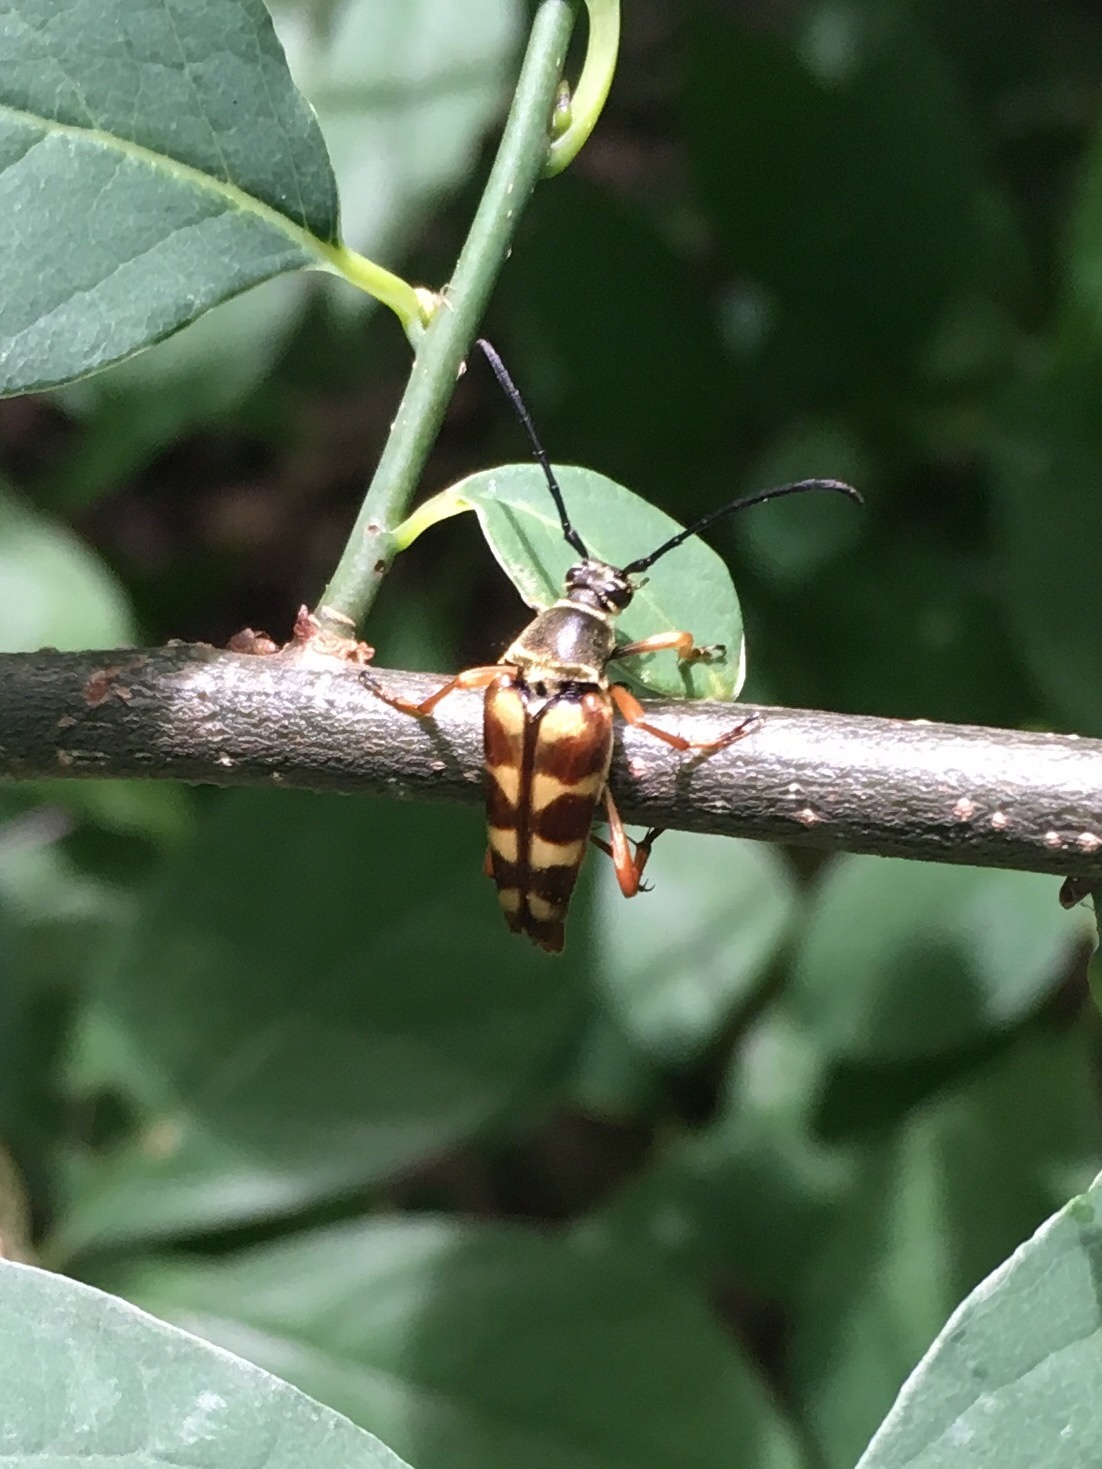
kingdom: Animalia
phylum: Arthropoda
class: Insecta
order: Coleoptera
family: Cerambycidae
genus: Typocerus
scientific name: Typocerus velutinus
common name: Banded longhorn beetle
